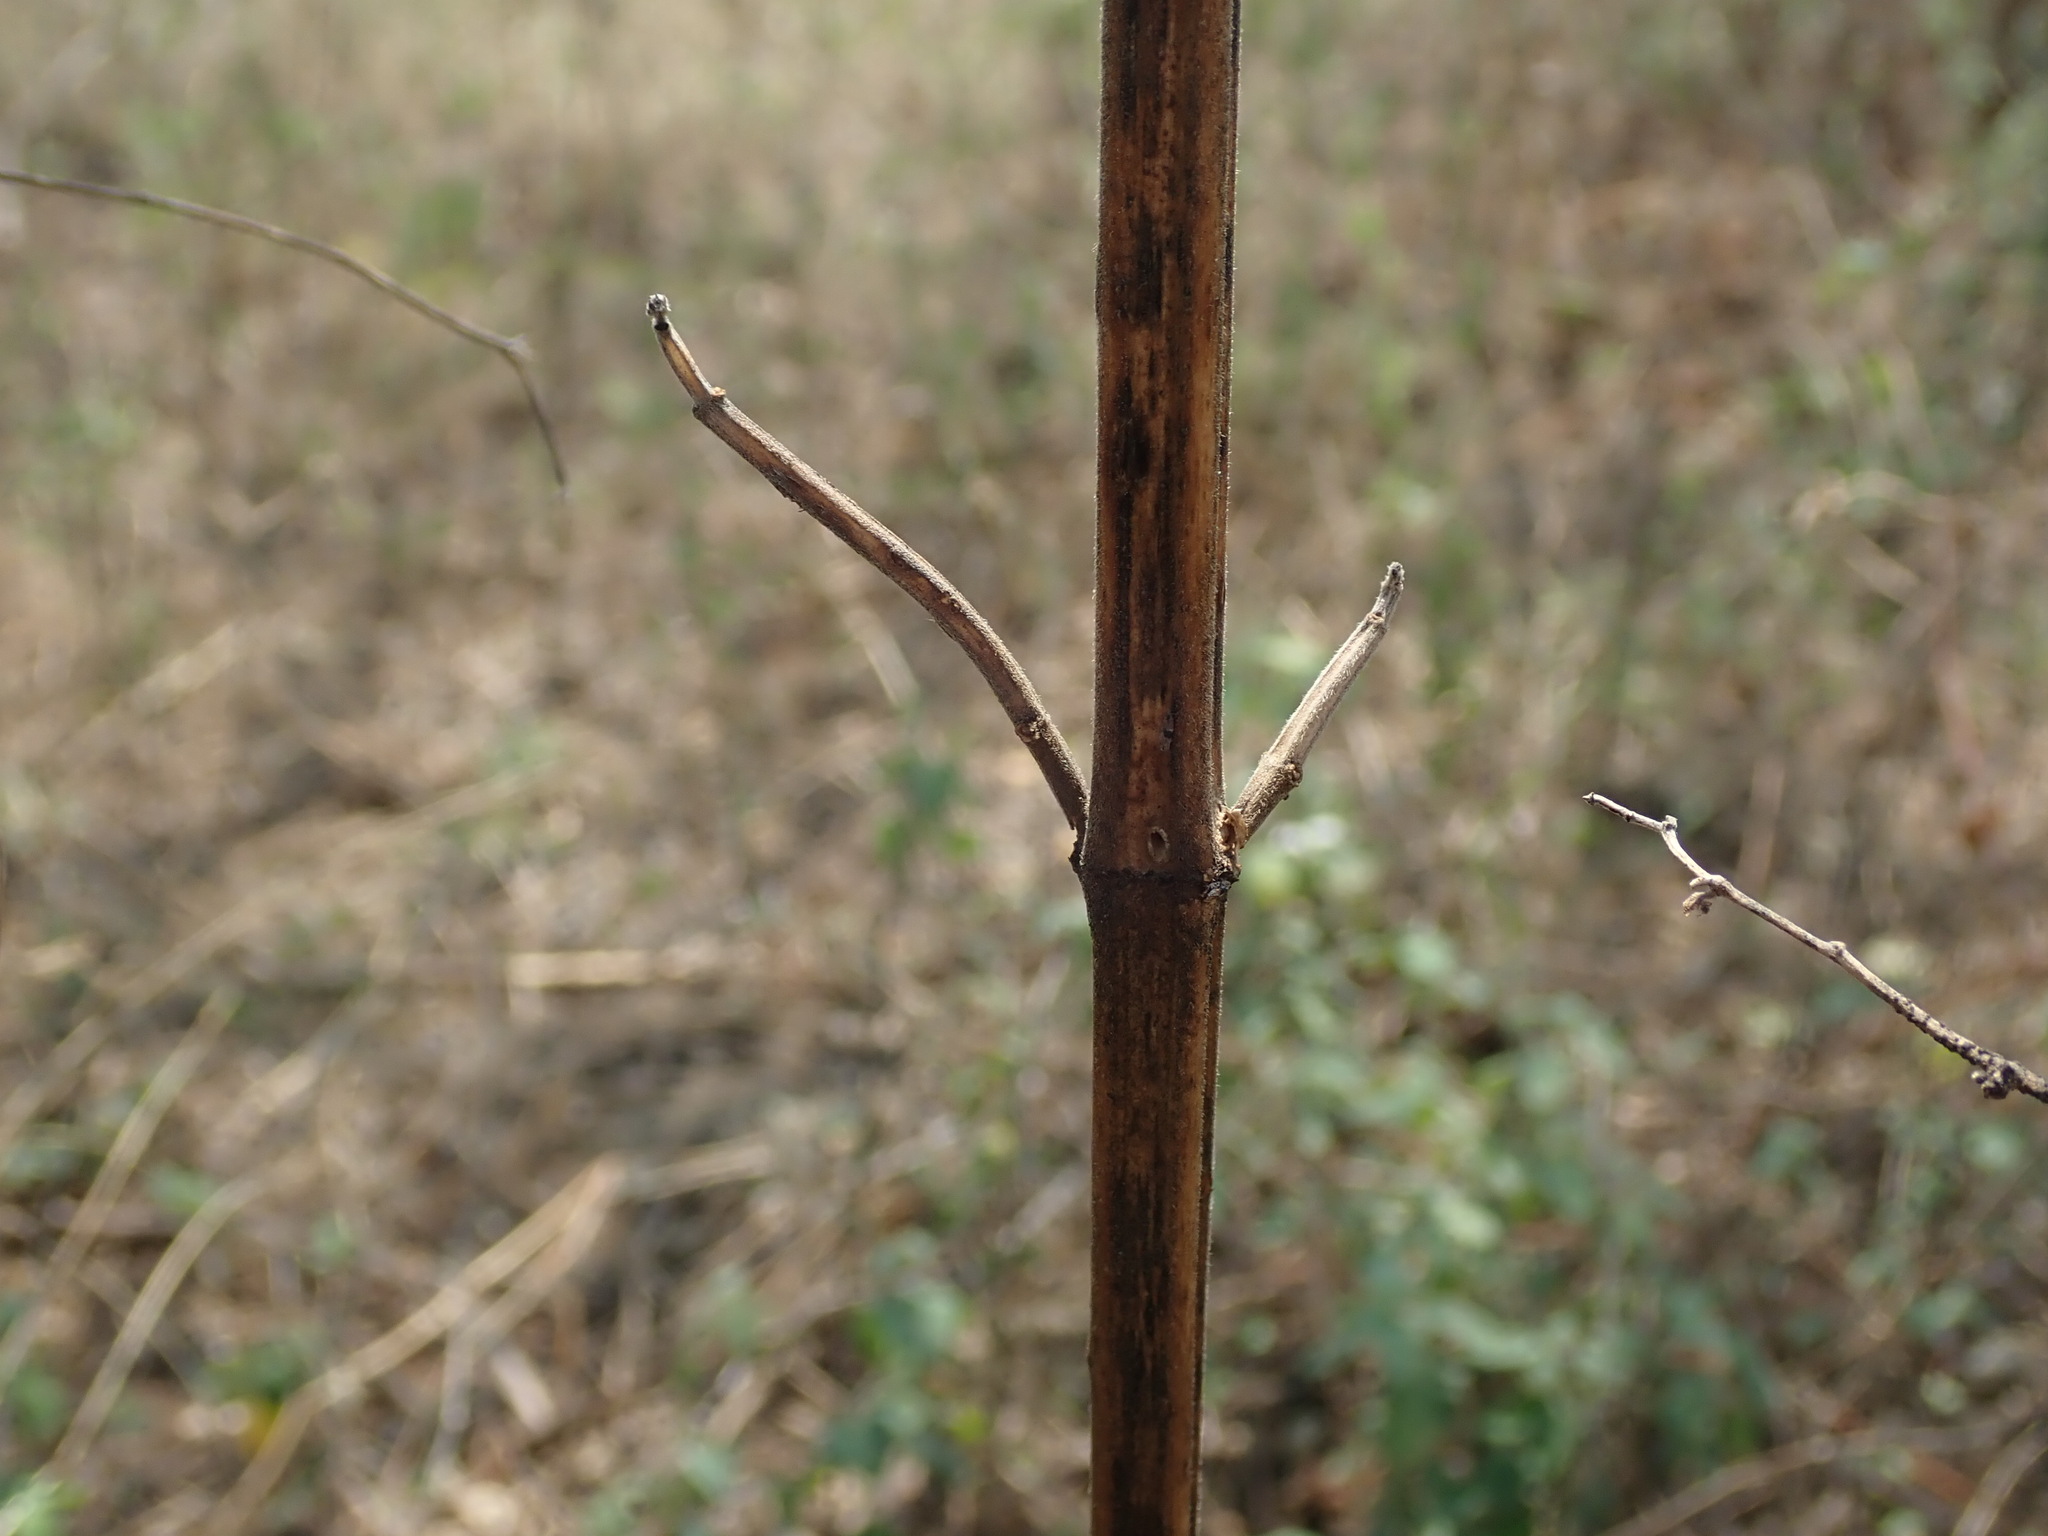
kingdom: Plantae
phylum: Tracheophyta
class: Magnoliopsida
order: Lamiales
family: Lamiaceae
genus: Leonotis
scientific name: Leonotis nepetifolia
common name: Christmas candlestick
